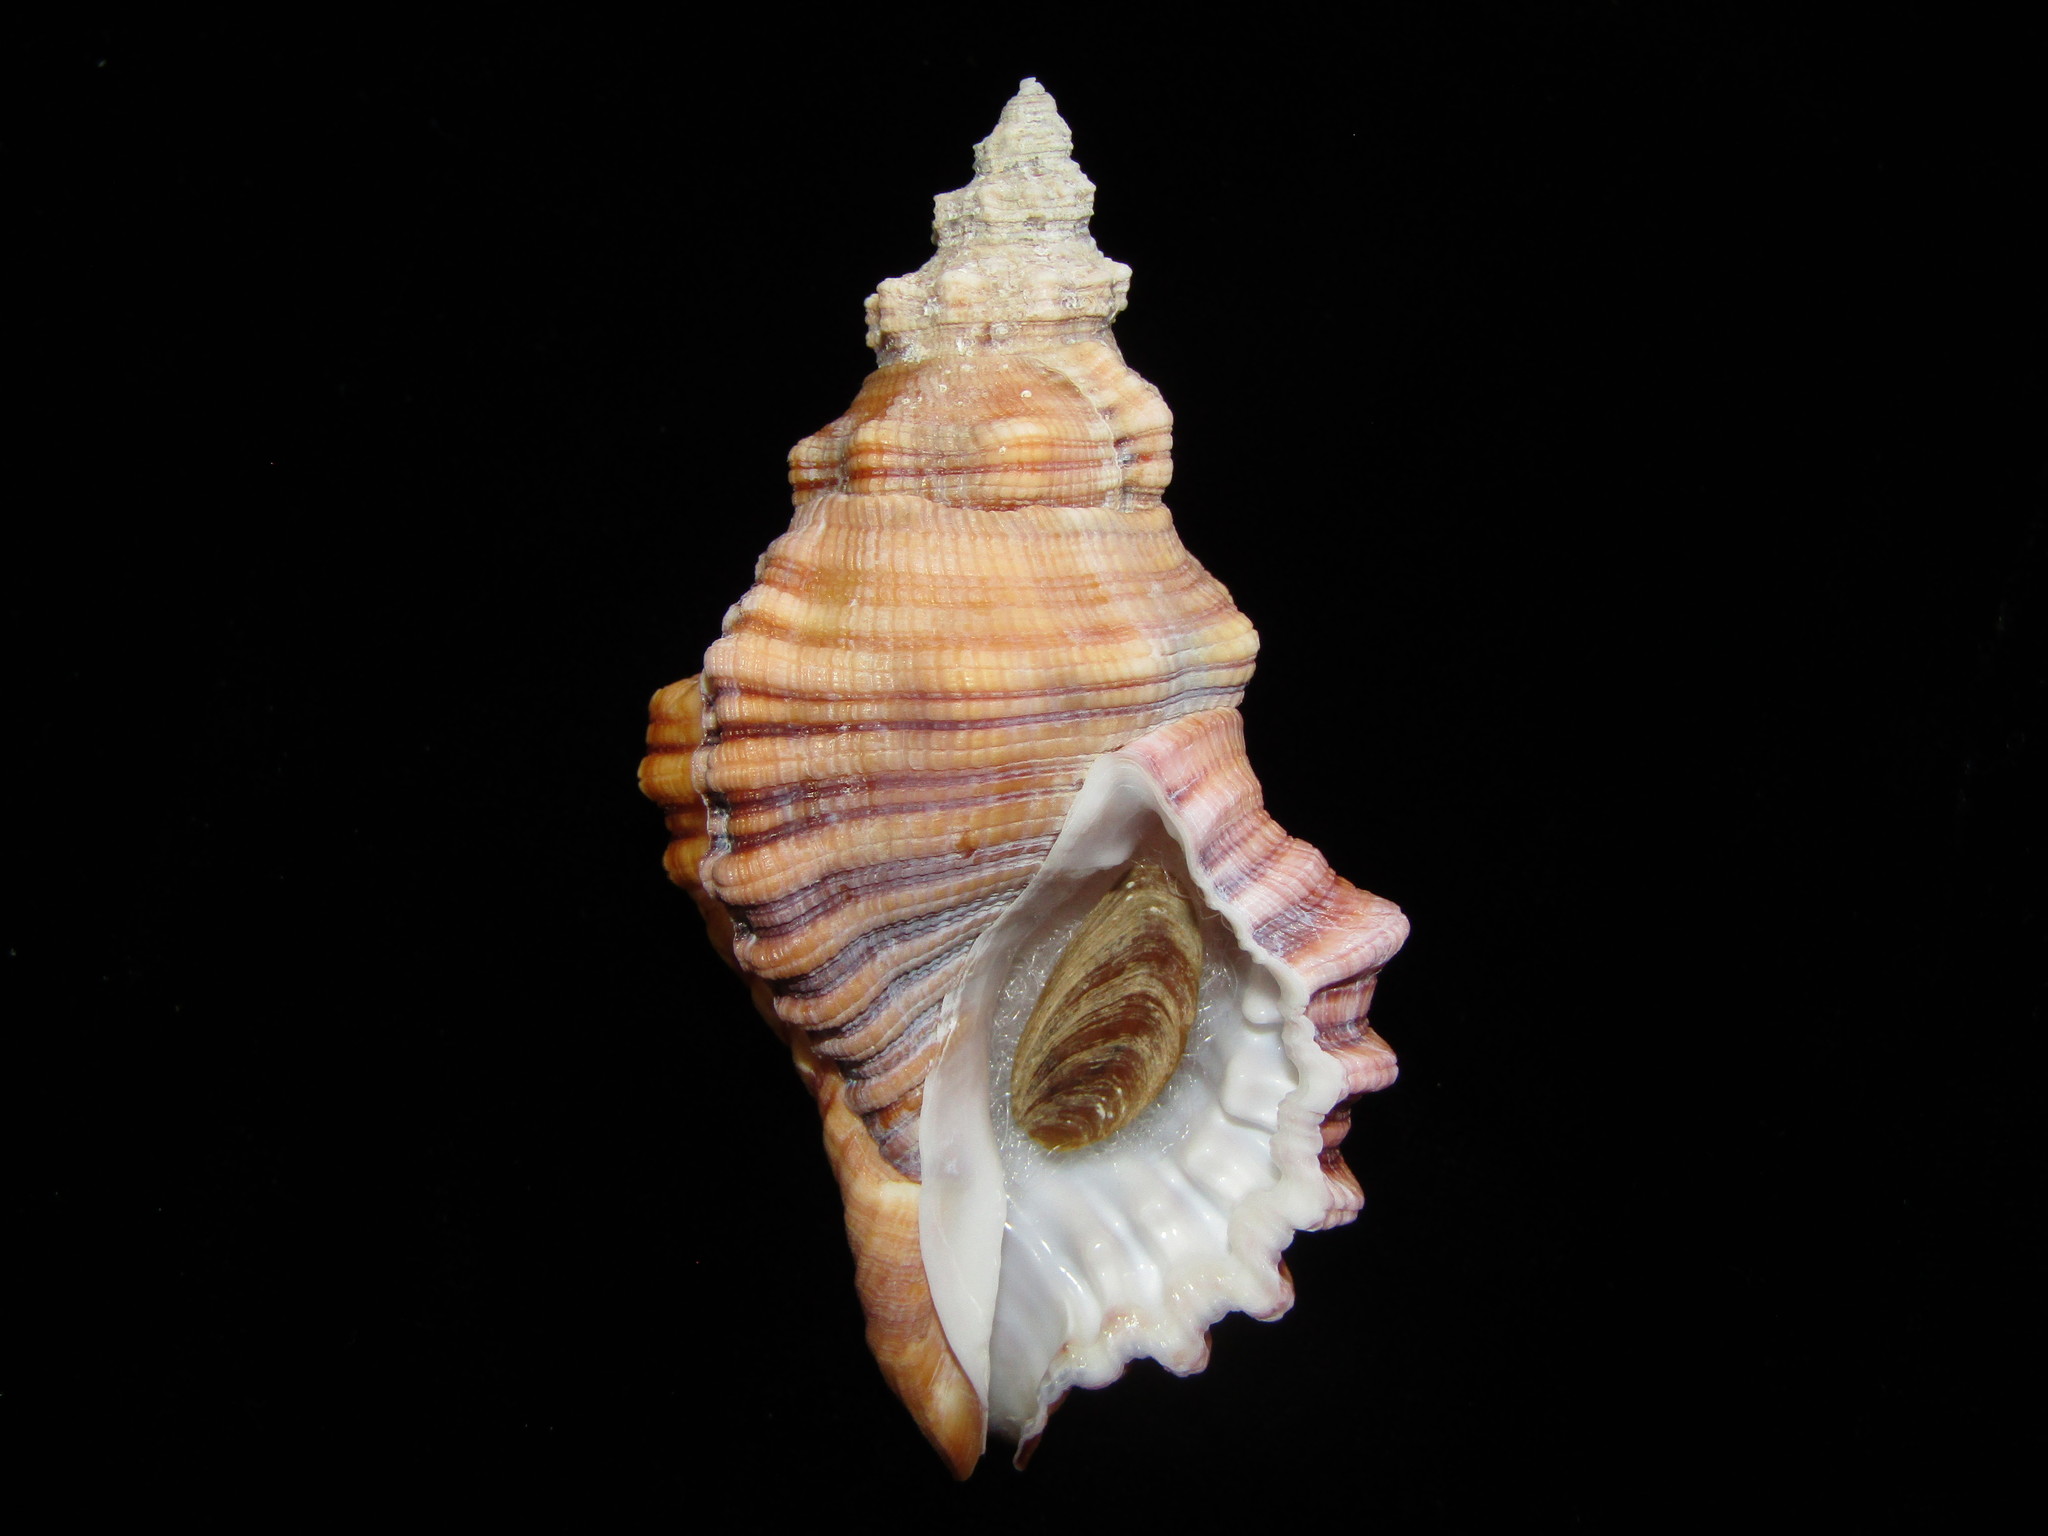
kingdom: Animalia
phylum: Mollusca
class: Gastropoda
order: Littorinimorpha
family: Cymatiidae
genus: Cabestana
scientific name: Cabestana spengleri
